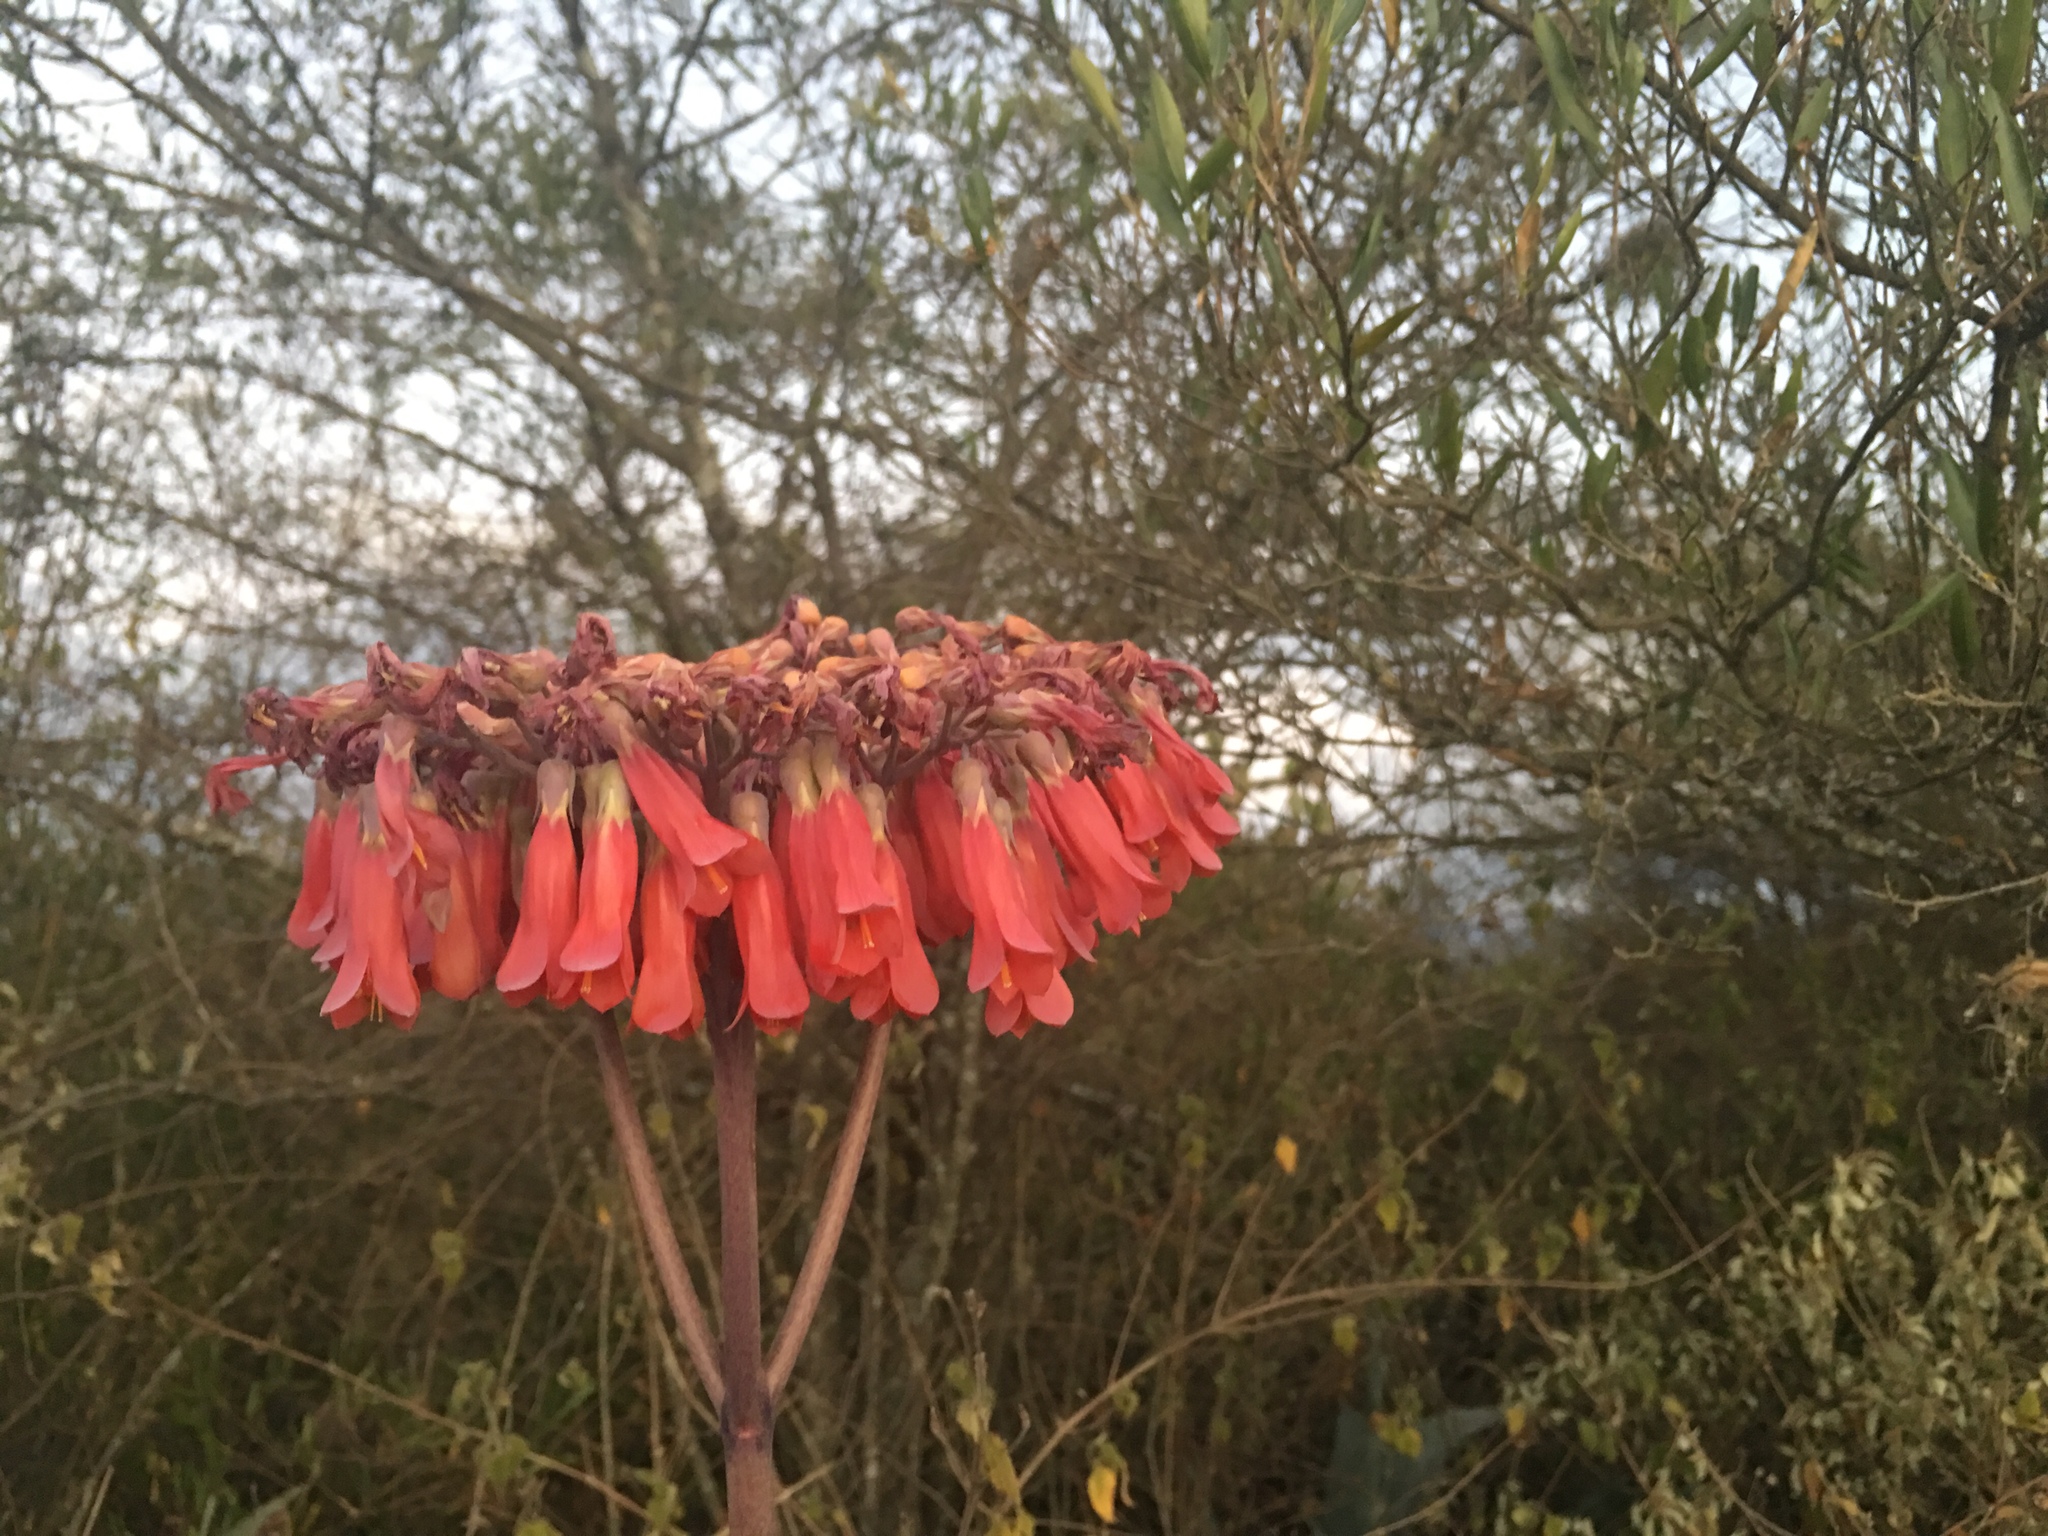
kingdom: Plantae
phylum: Tracheophyta
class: Magnoliopsida
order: Saxifragales
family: Crassulaceae
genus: Kalanchoe
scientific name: Kalanchoe
